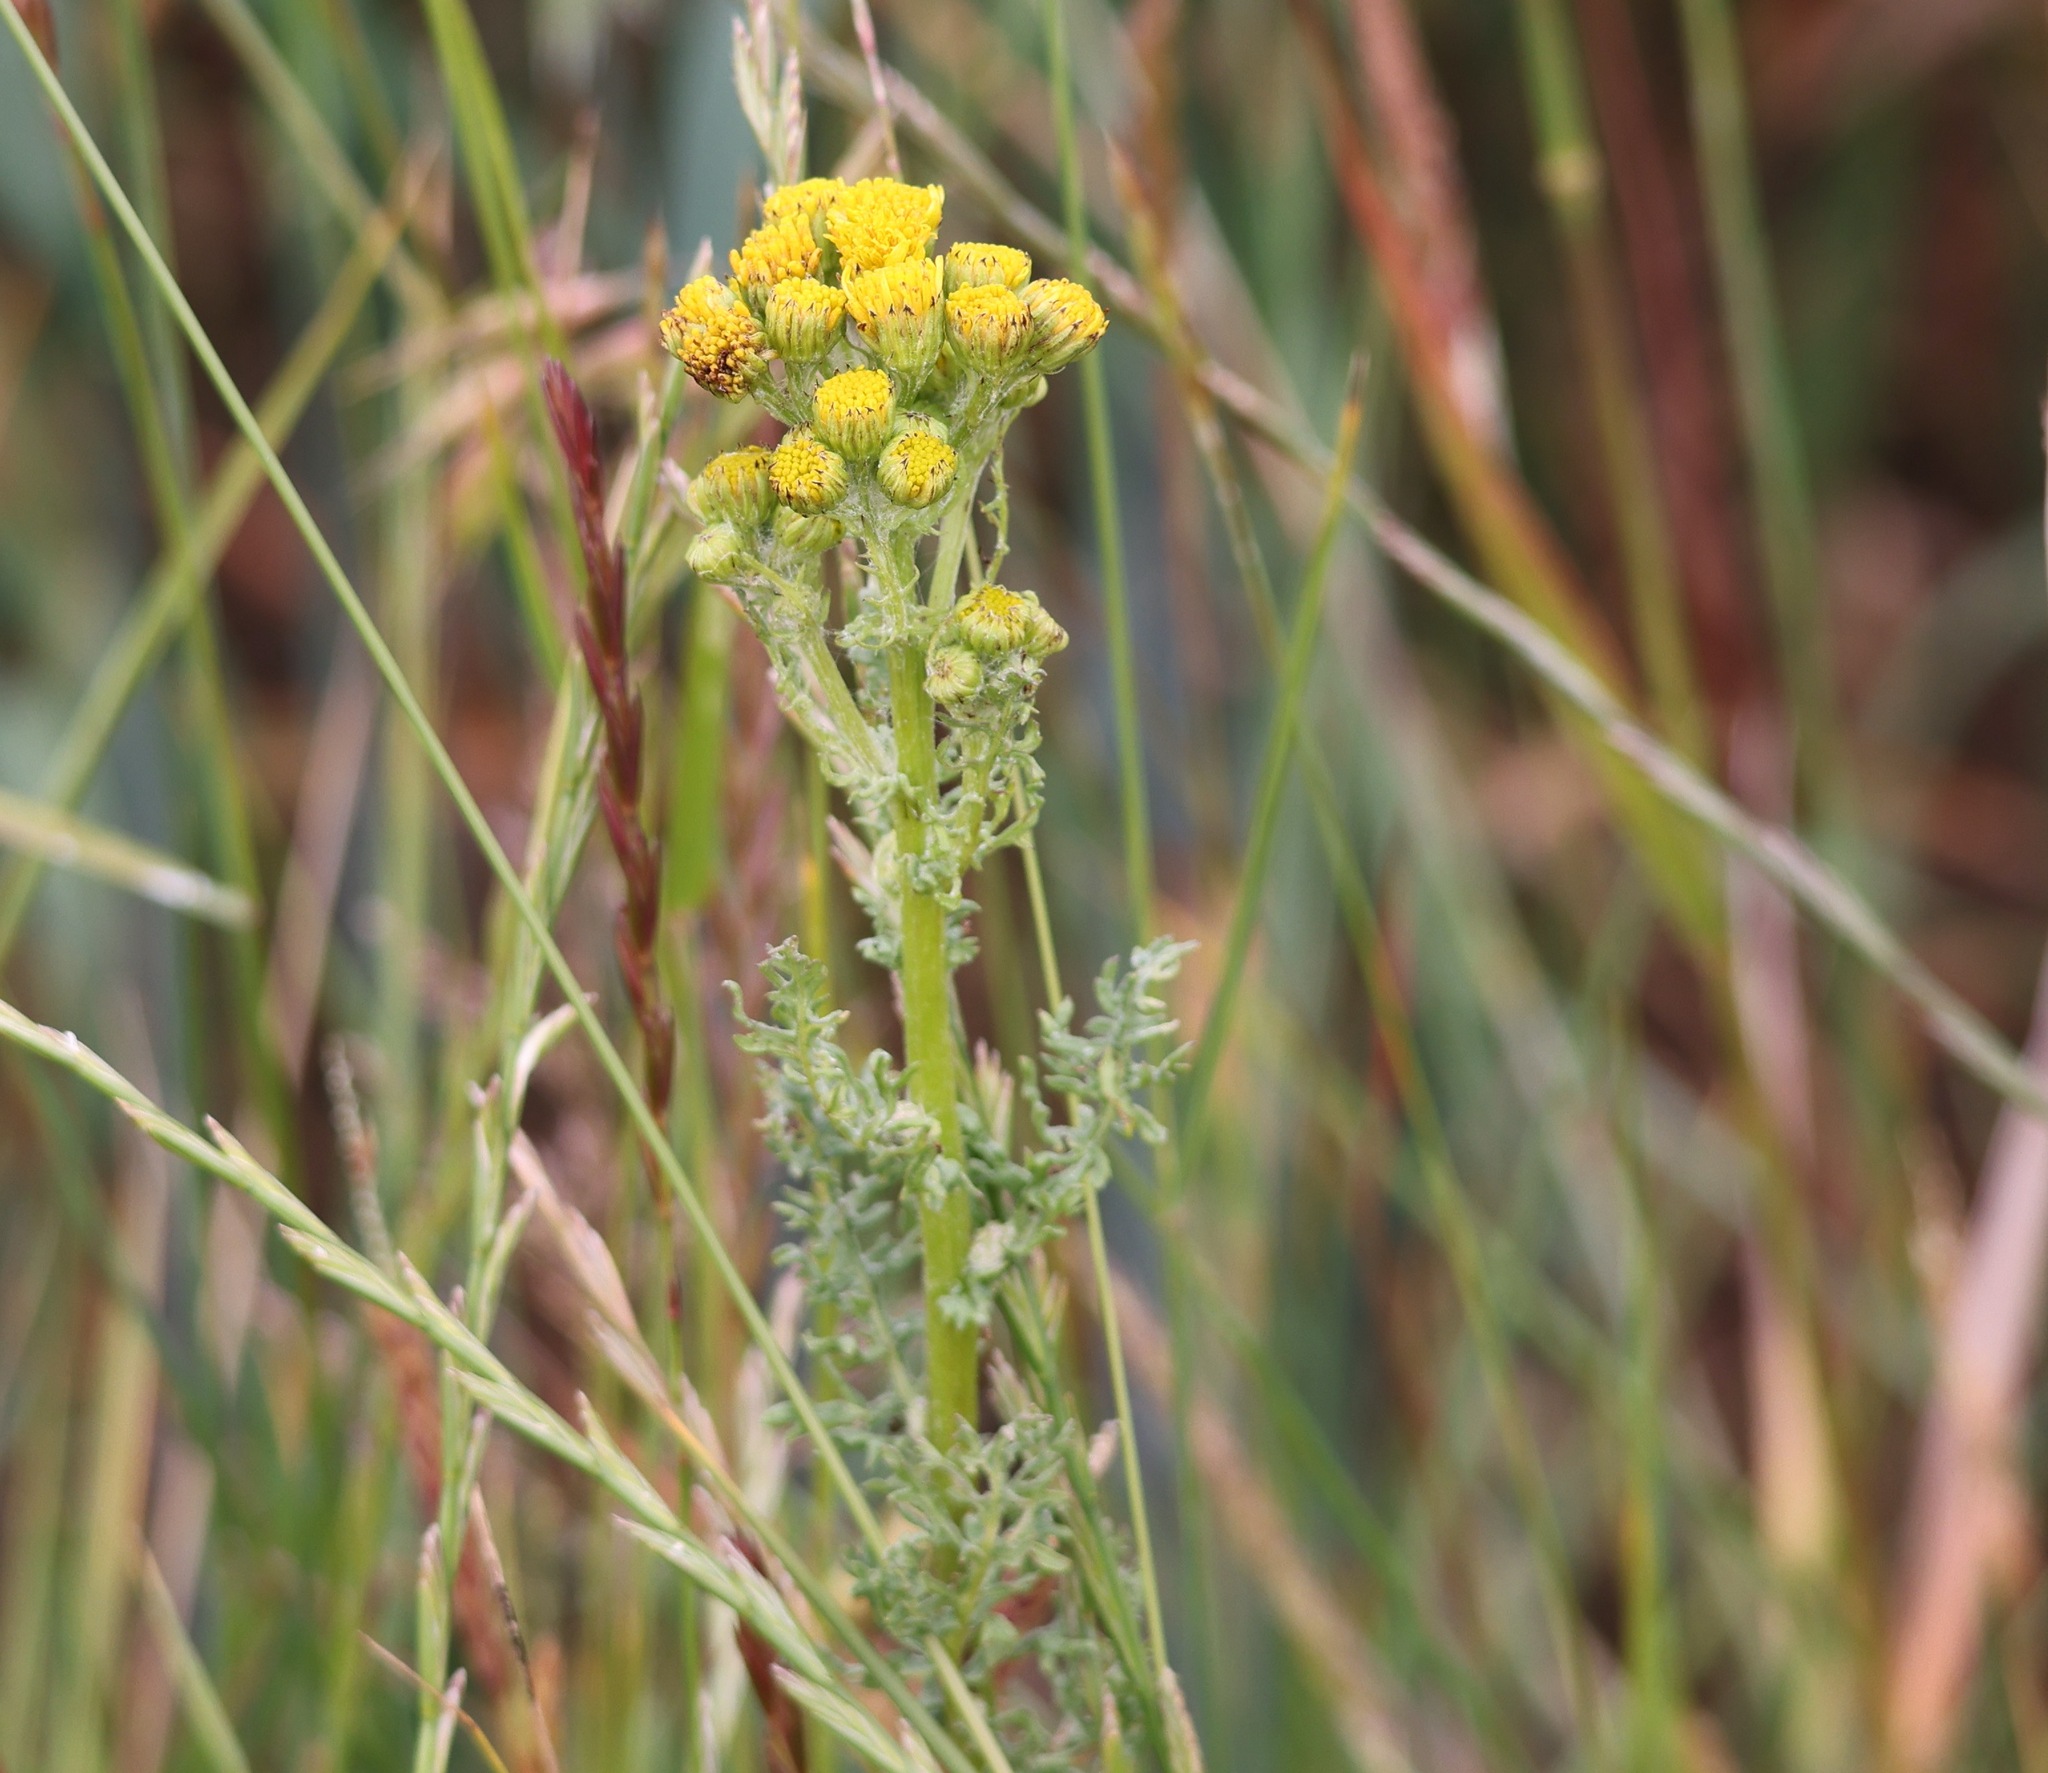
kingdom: Plantae
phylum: Tracheophyta
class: Magnoliopsida
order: Asterales
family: Asteraceae
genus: Jacobaea
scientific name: Jacobaea vulgaris
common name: Stinking willie
